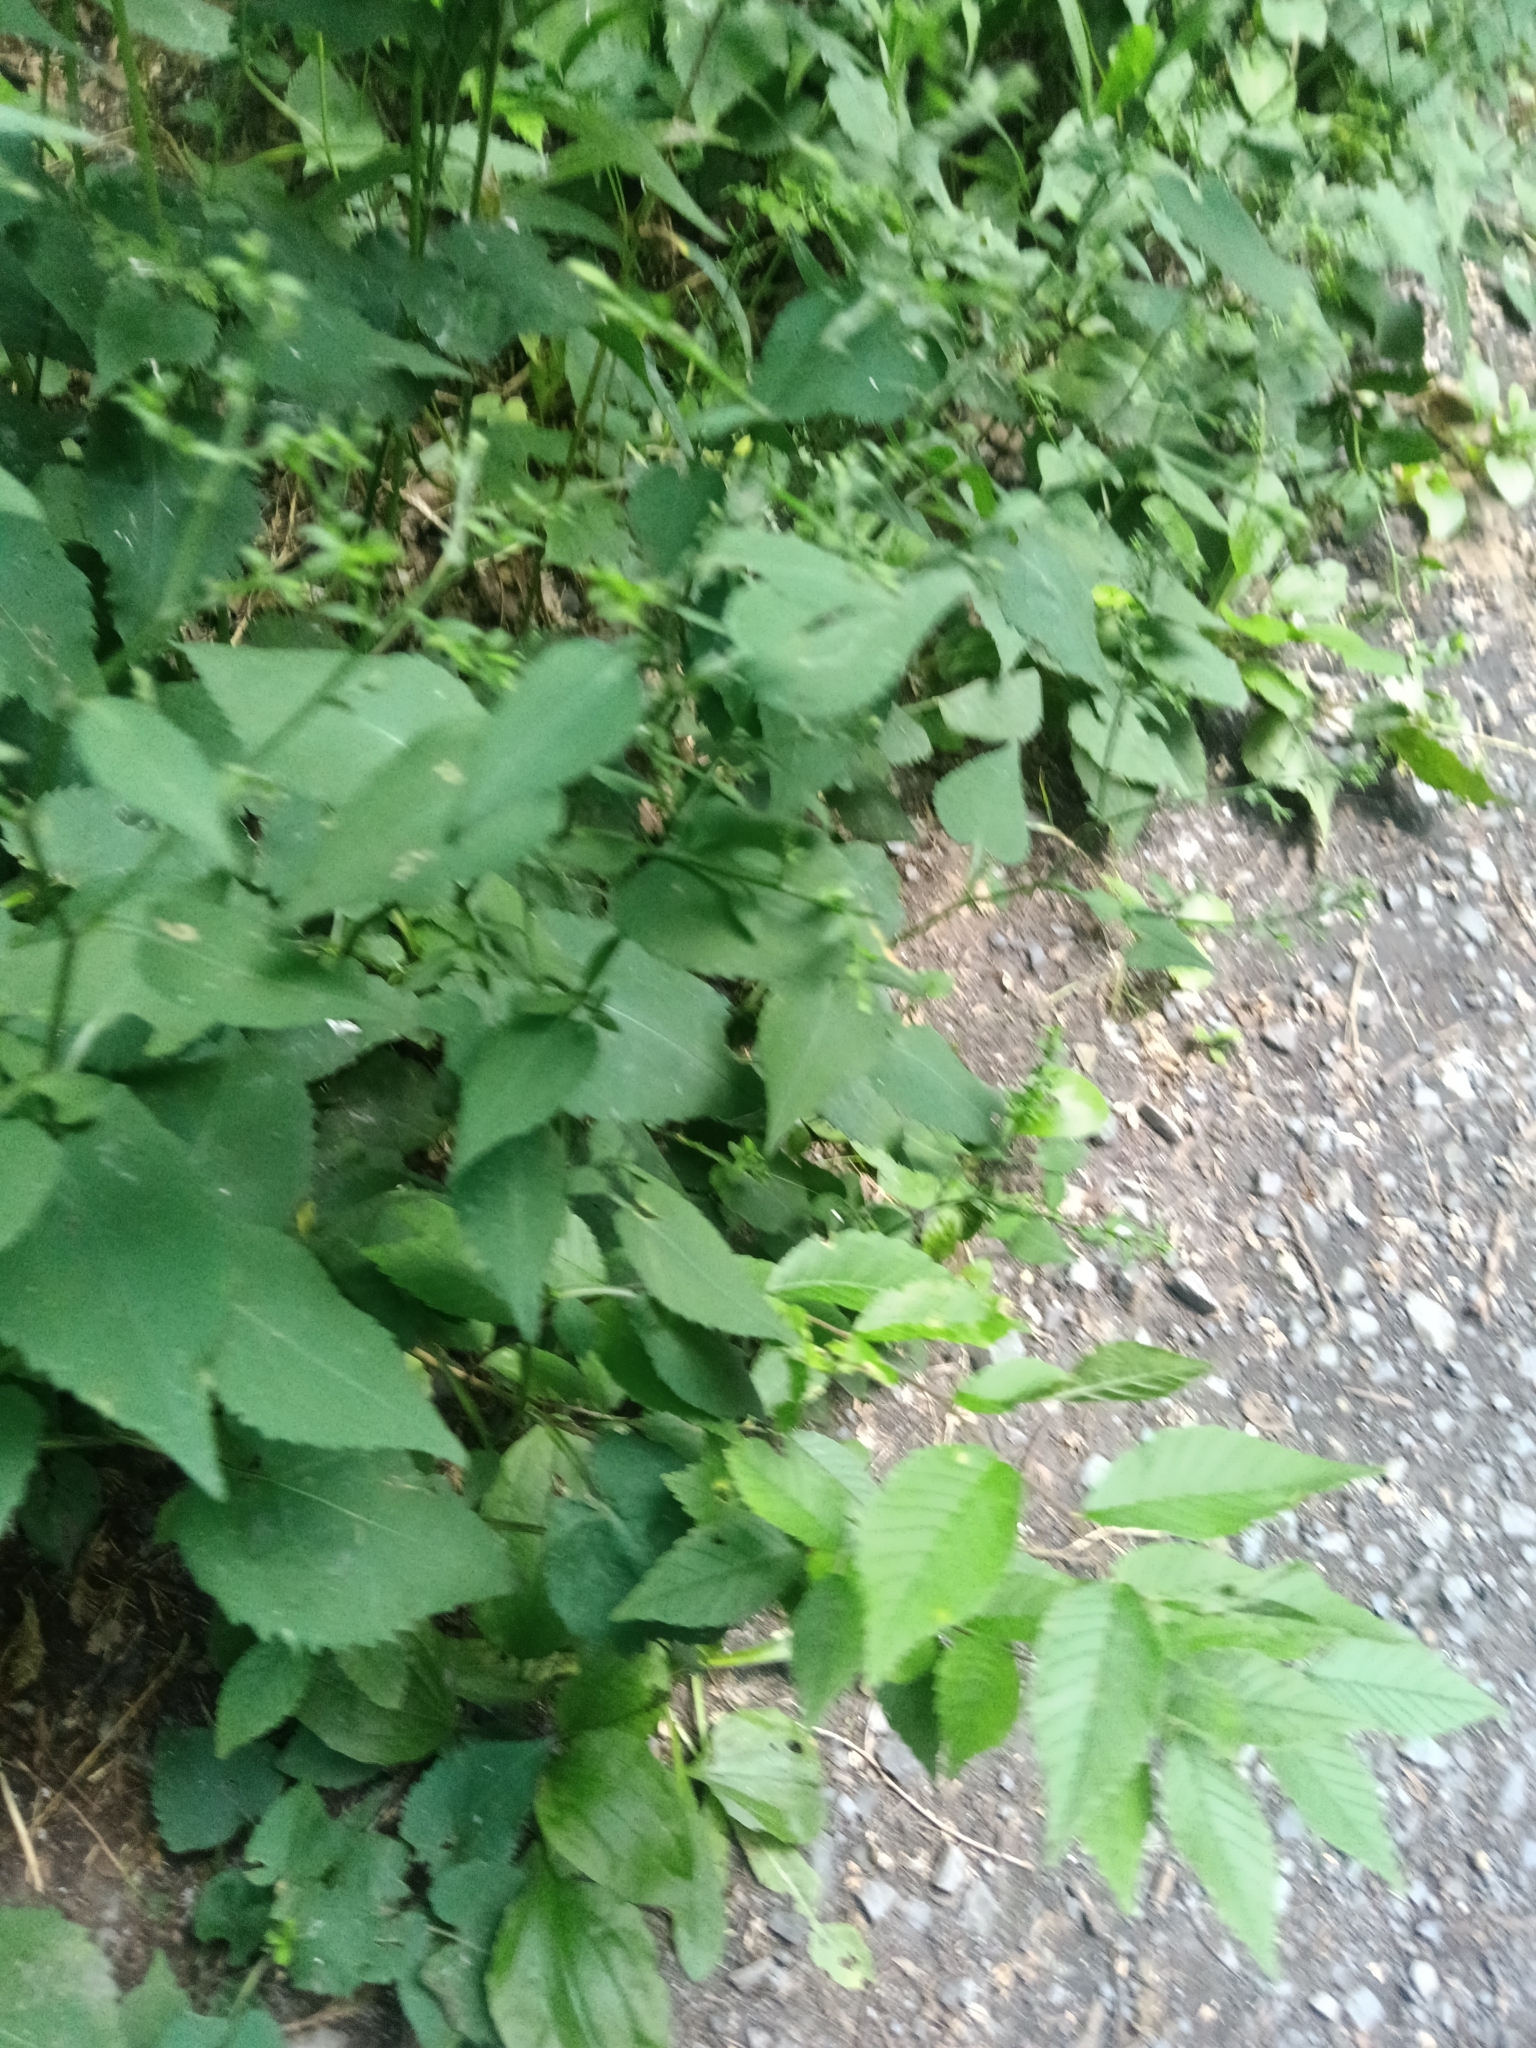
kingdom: Plantae
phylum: Tracheophyta
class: Magnoliopsida
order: Asterales
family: Asteraceae
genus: Symphyotrichum
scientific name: Symphyotrichum cordifolium
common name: Beeweed
